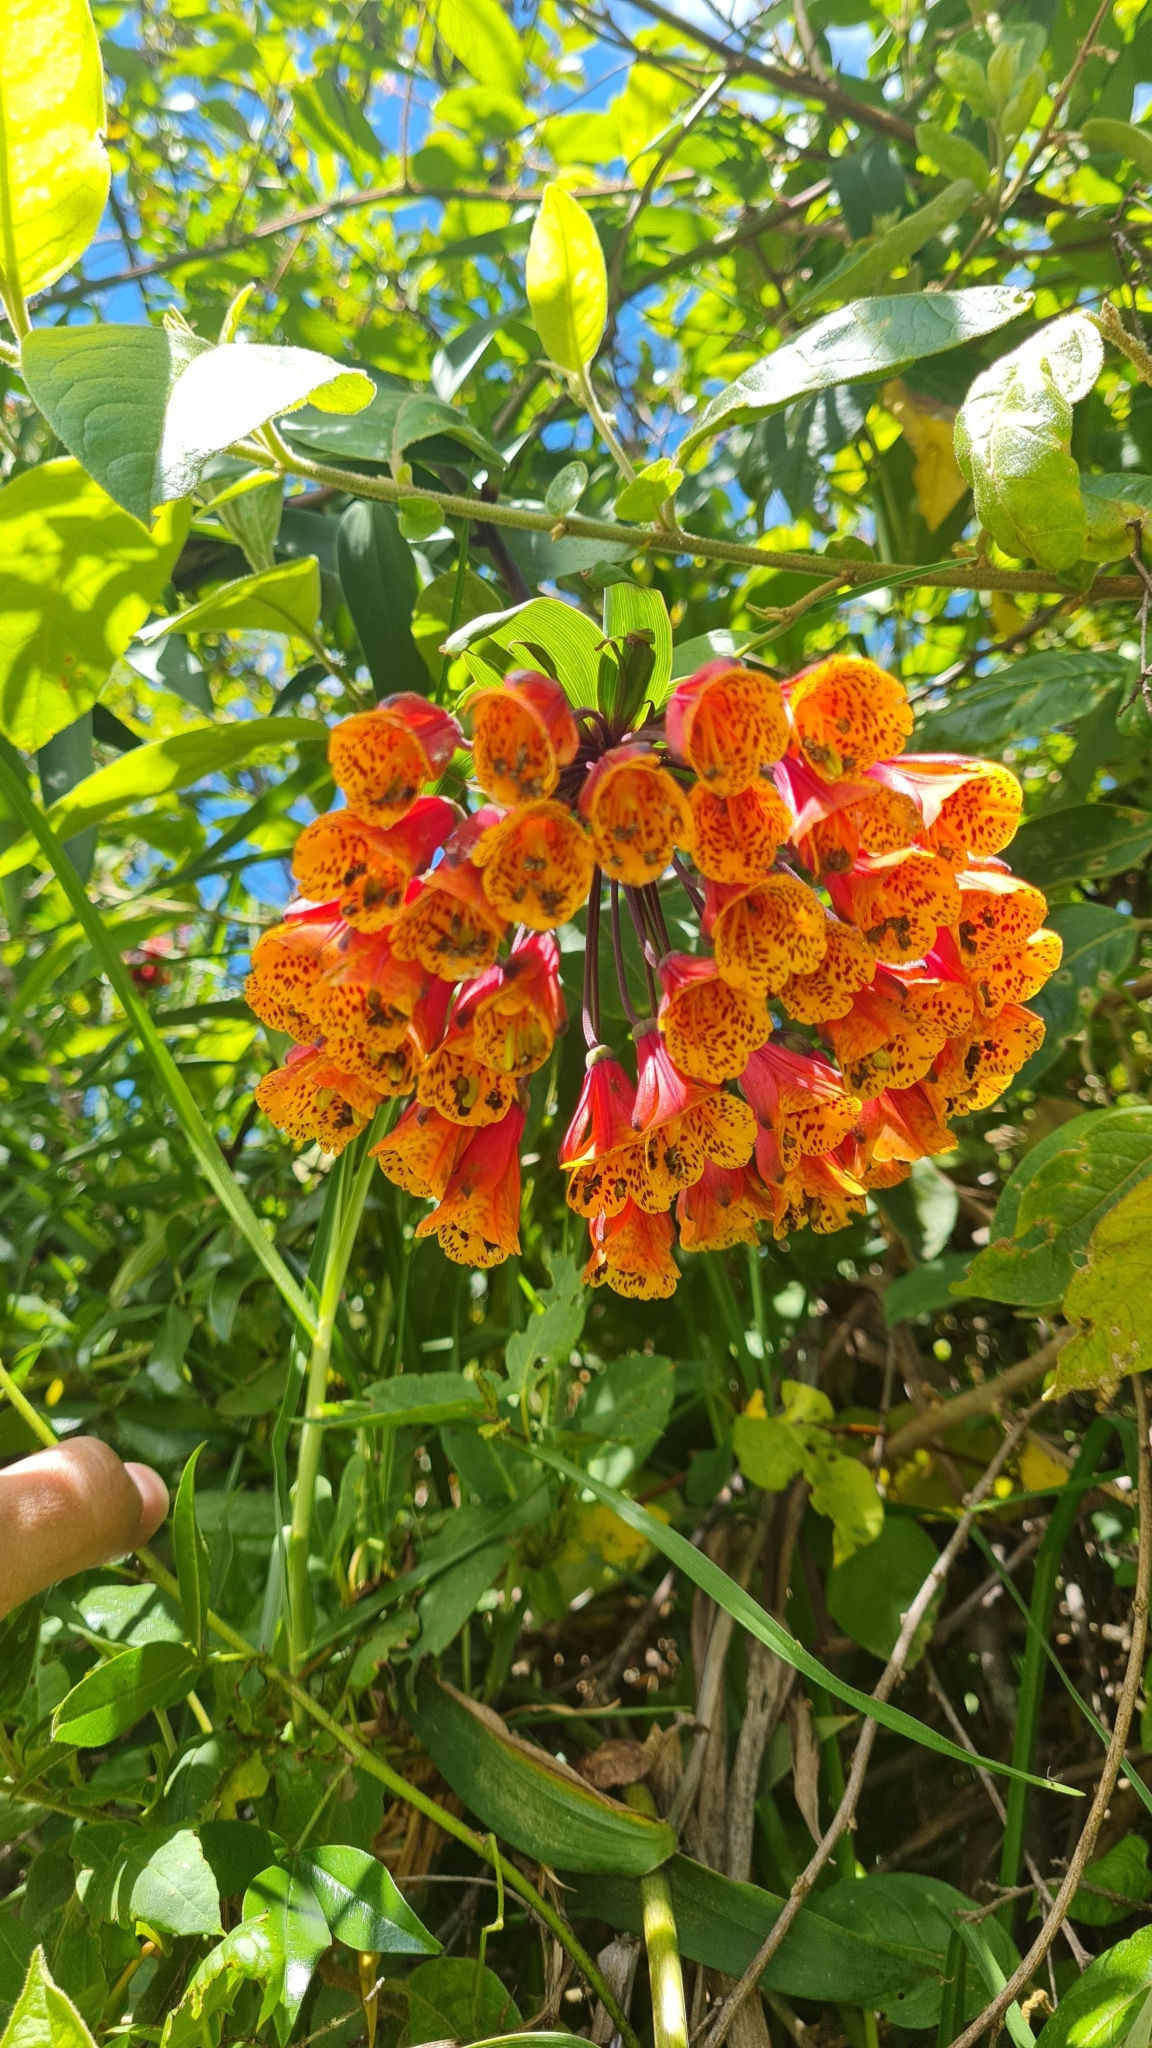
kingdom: Plantae
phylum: Tracheophyta
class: Liliopsida
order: Liliales
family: Alstroemeriaceae
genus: Bomarea
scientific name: Bomarea multiflora
